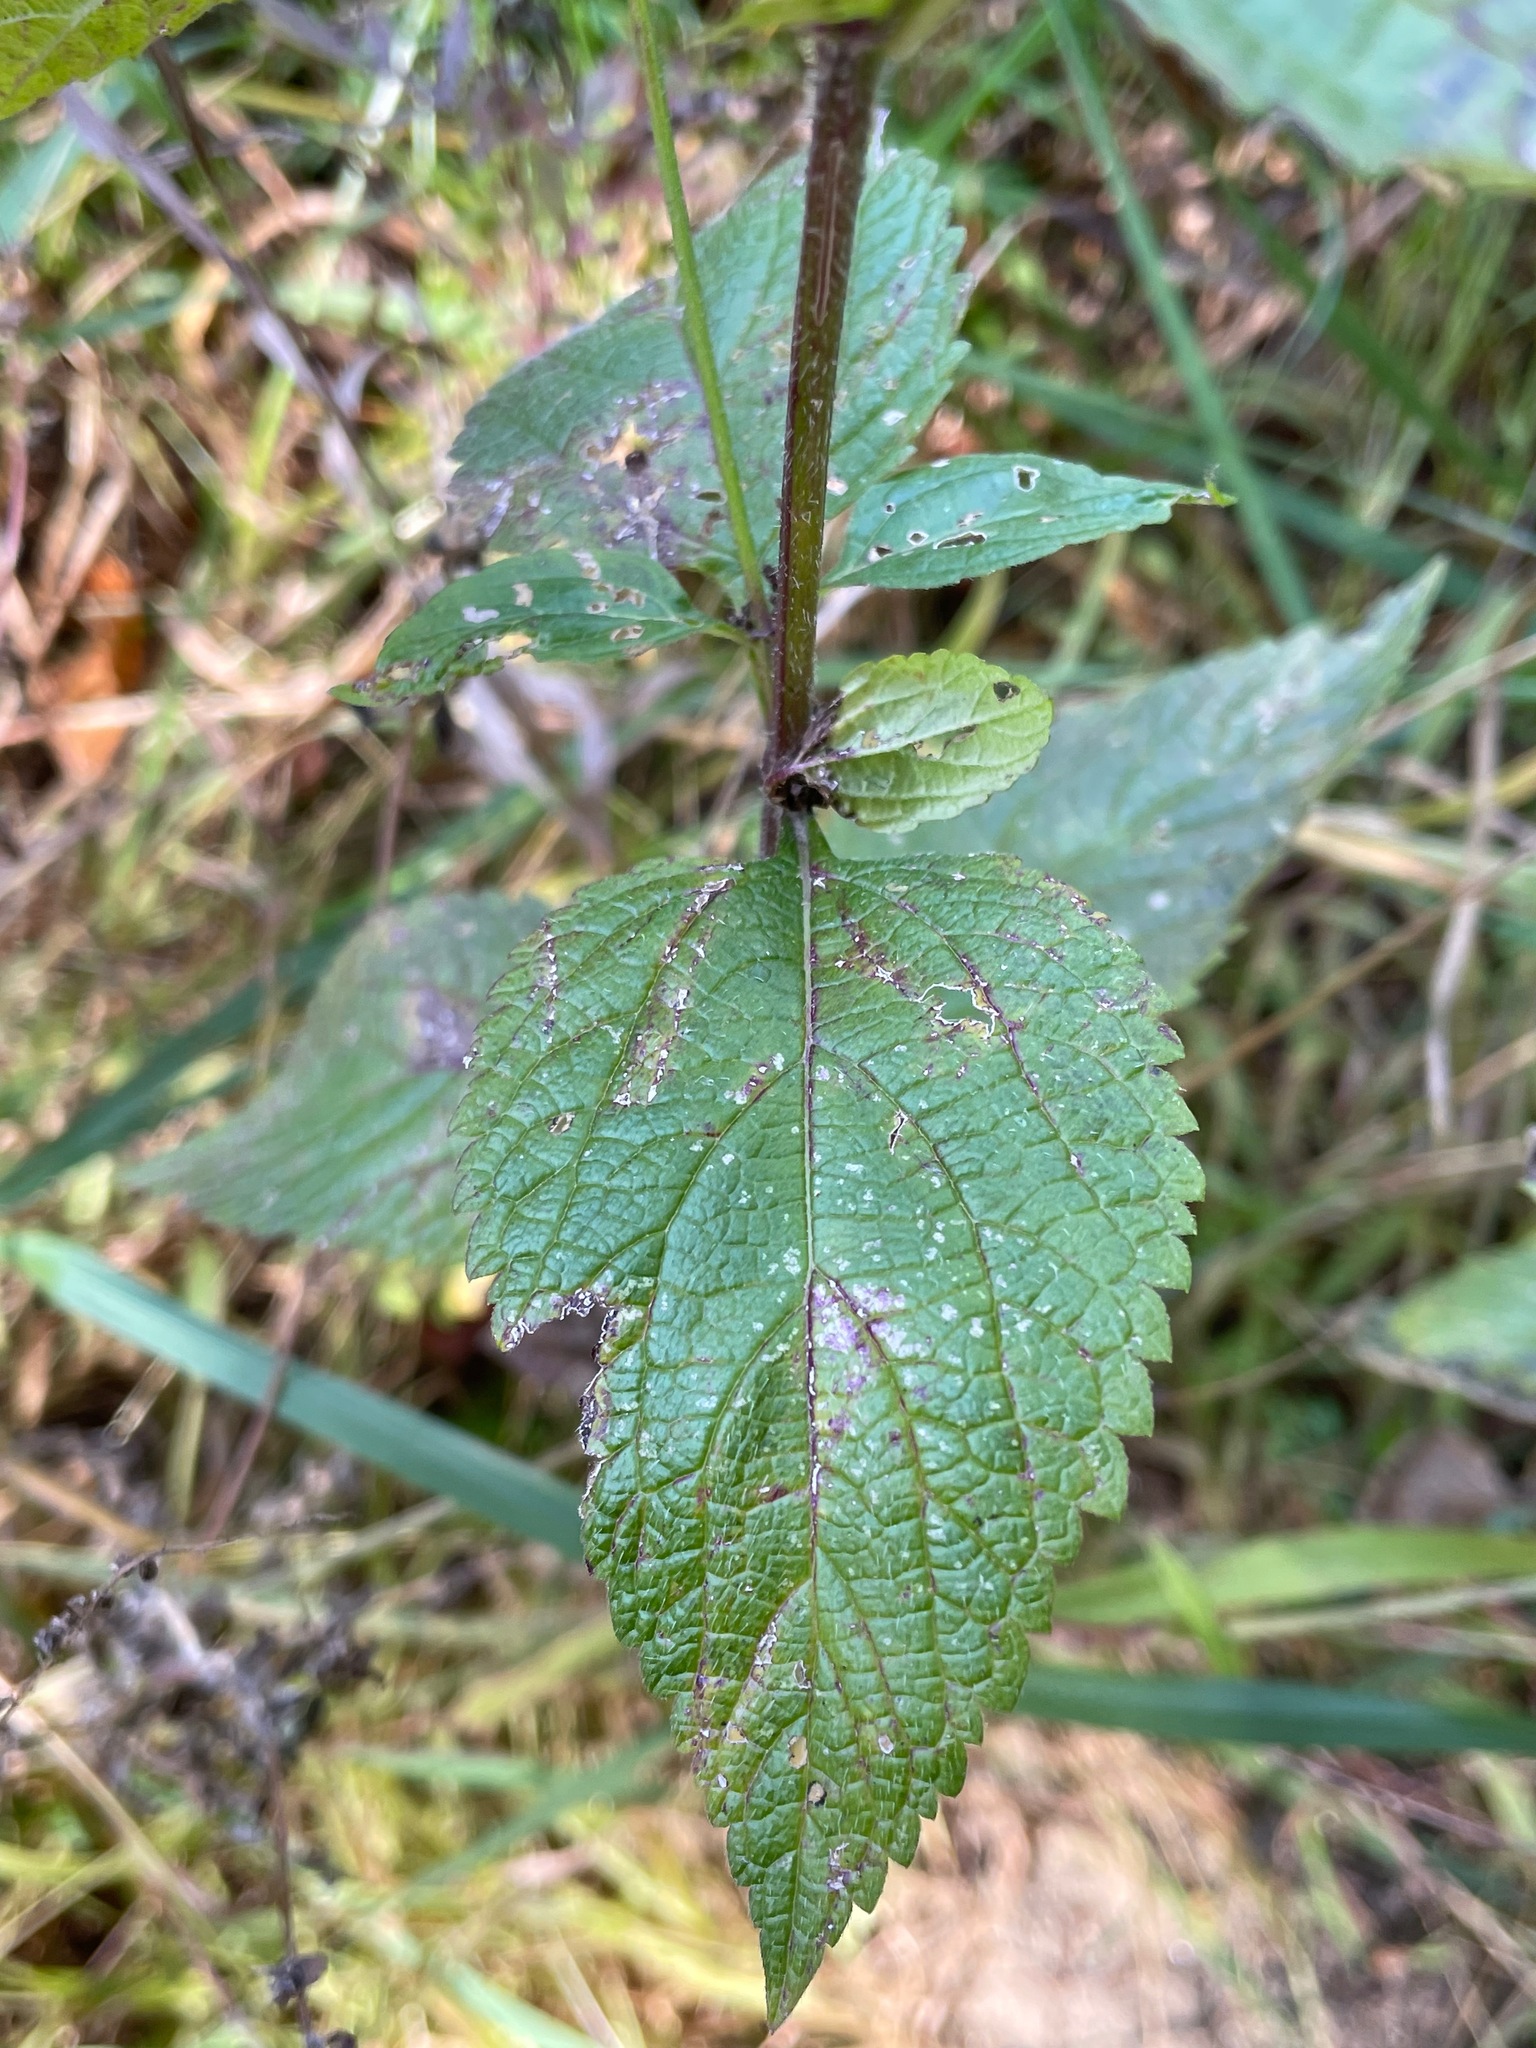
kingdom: Plantae
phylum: Tracheophyta
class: Magnoliopsida
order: Lamiales
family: Verbenaceae
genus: Verbena
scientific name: Verbena urticifolia
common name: Nettle-leaved vervain
